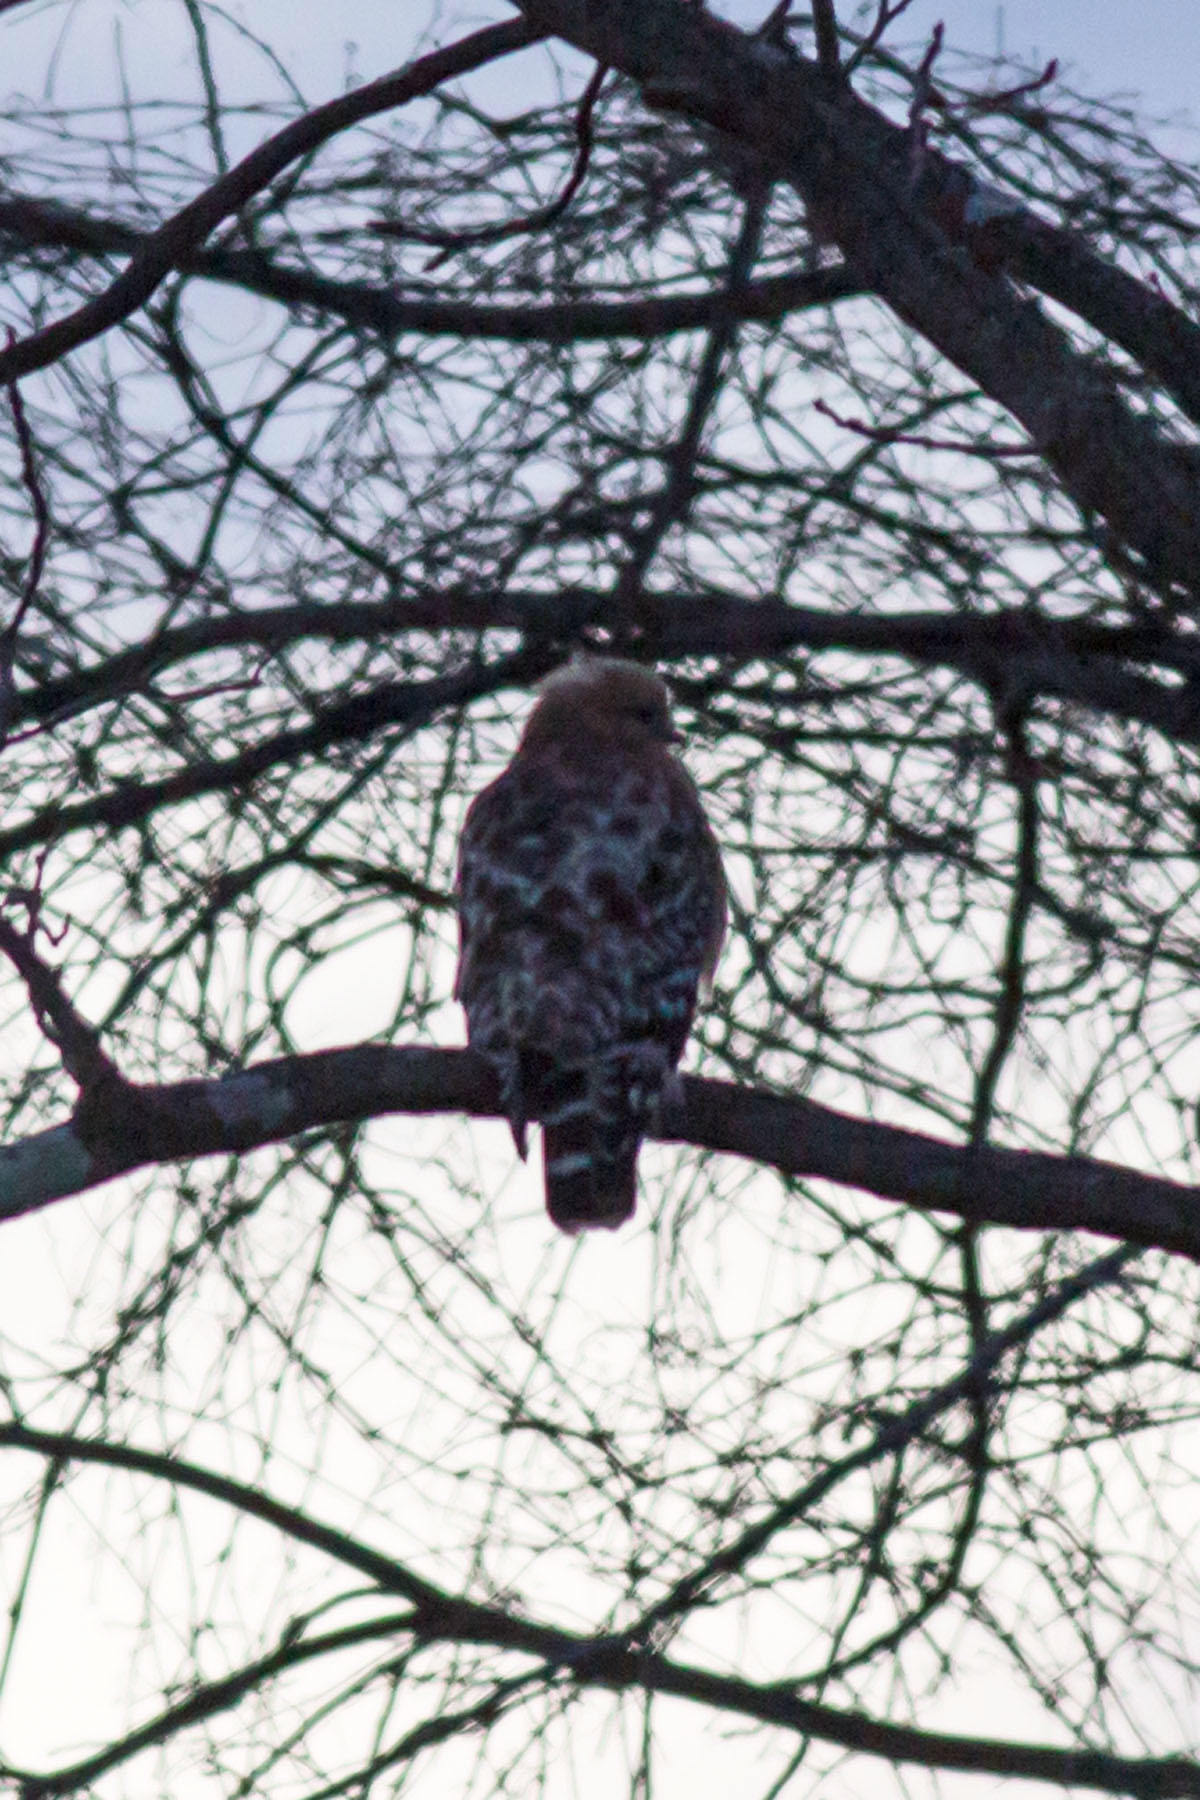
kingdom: Animalia
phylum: Chordata
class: Aves
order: Accipitriformes
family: Accipitridae
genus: Buteo
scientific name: Buteo lineatus
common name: Red-shouldered hawk
